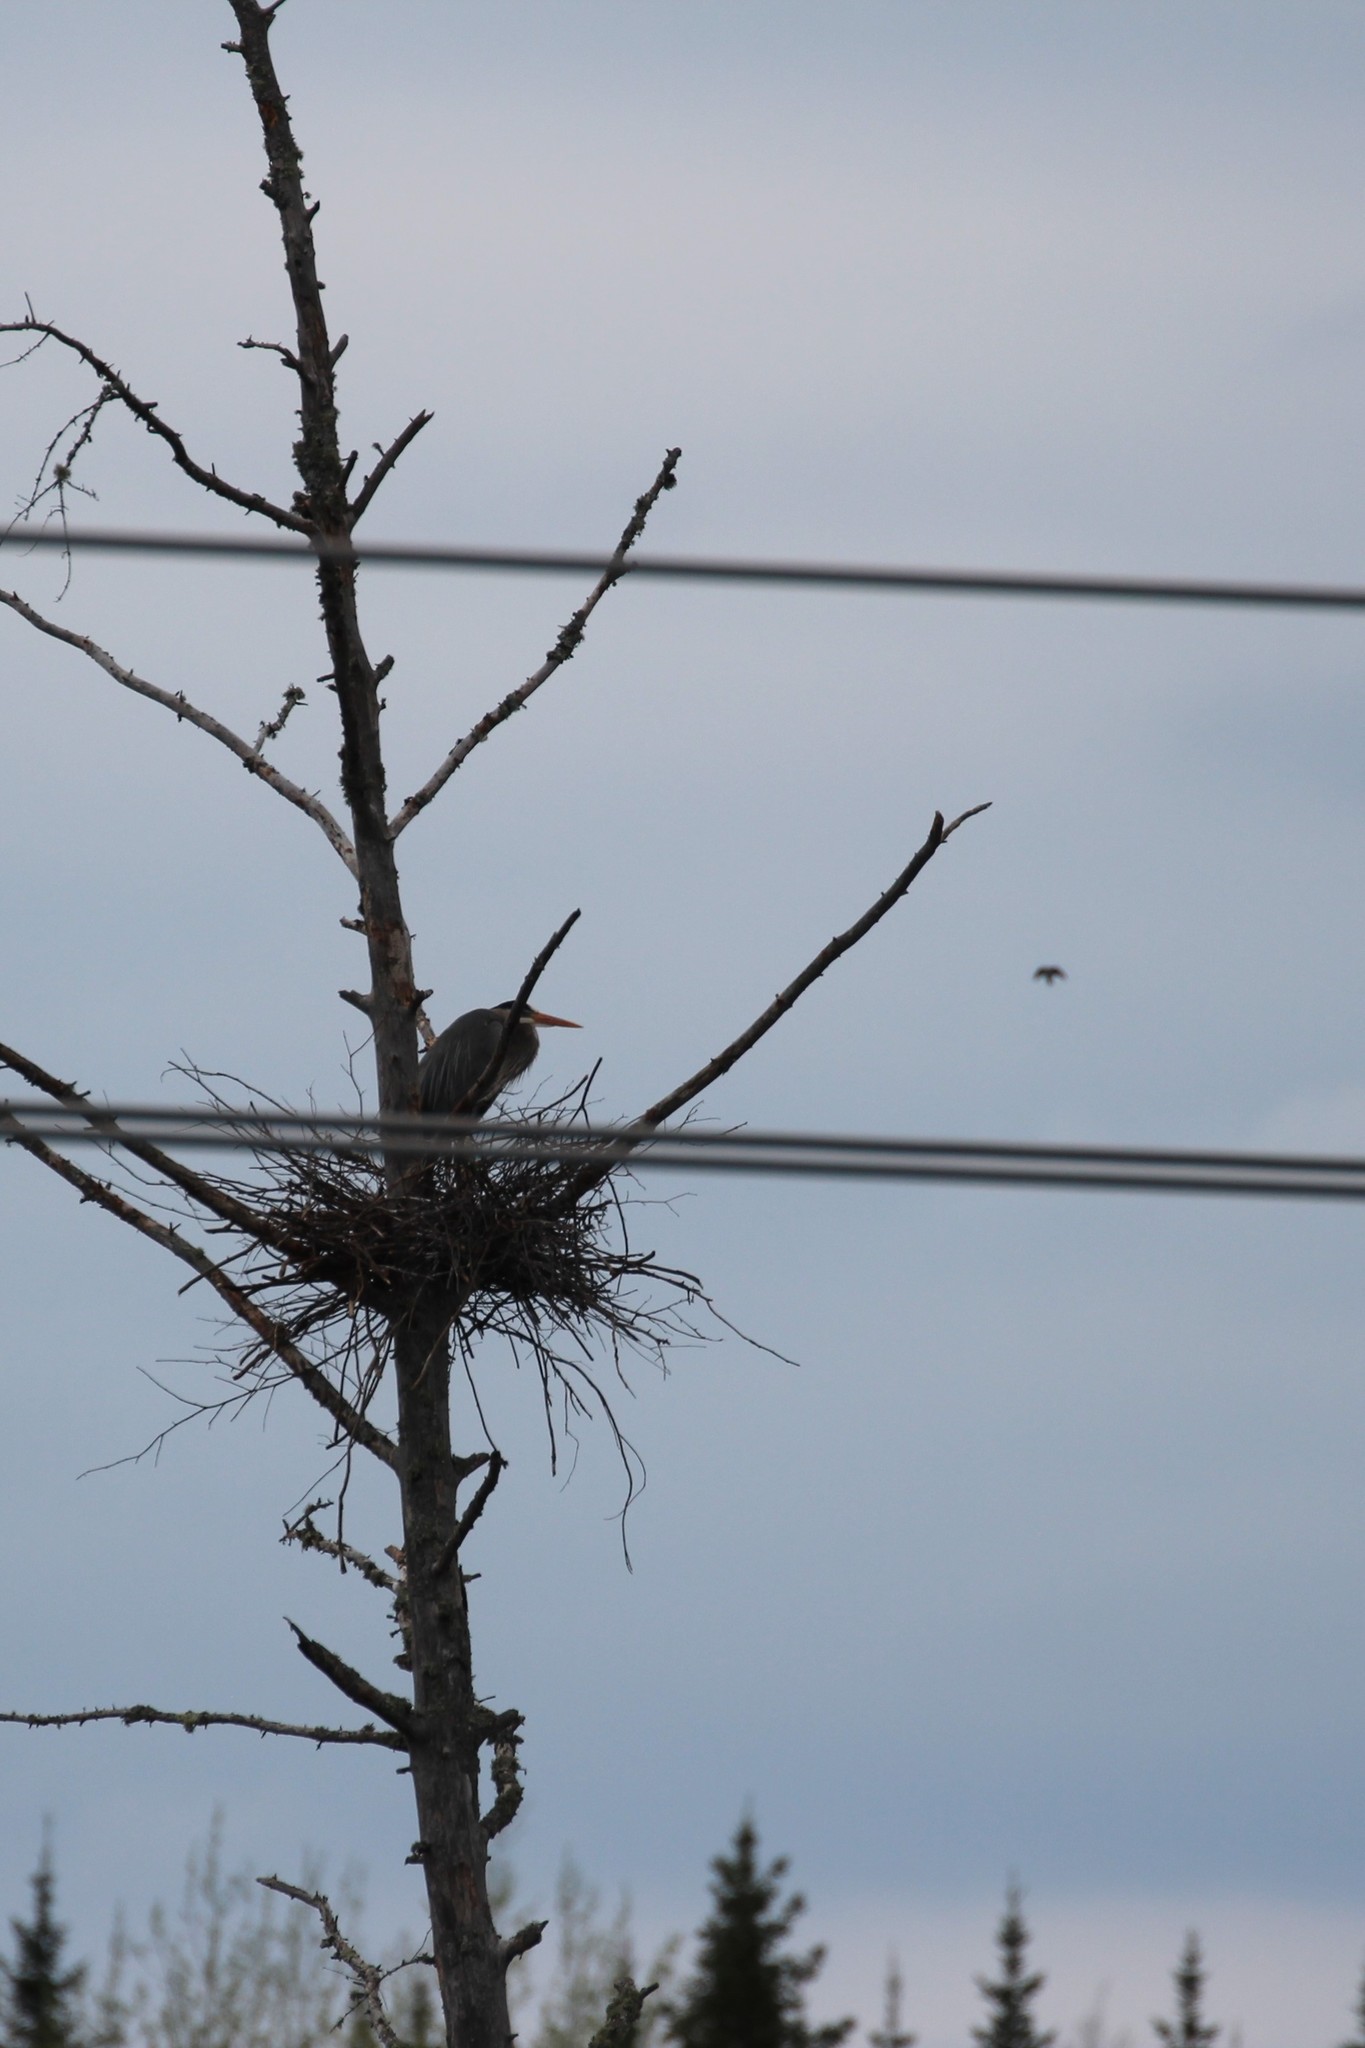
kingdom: Animalia
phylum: Chordata
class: Aves
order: Pelecaniformes
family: Ardeidae
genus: Ardea
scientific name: Ardea herodias
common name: Great blue heron
